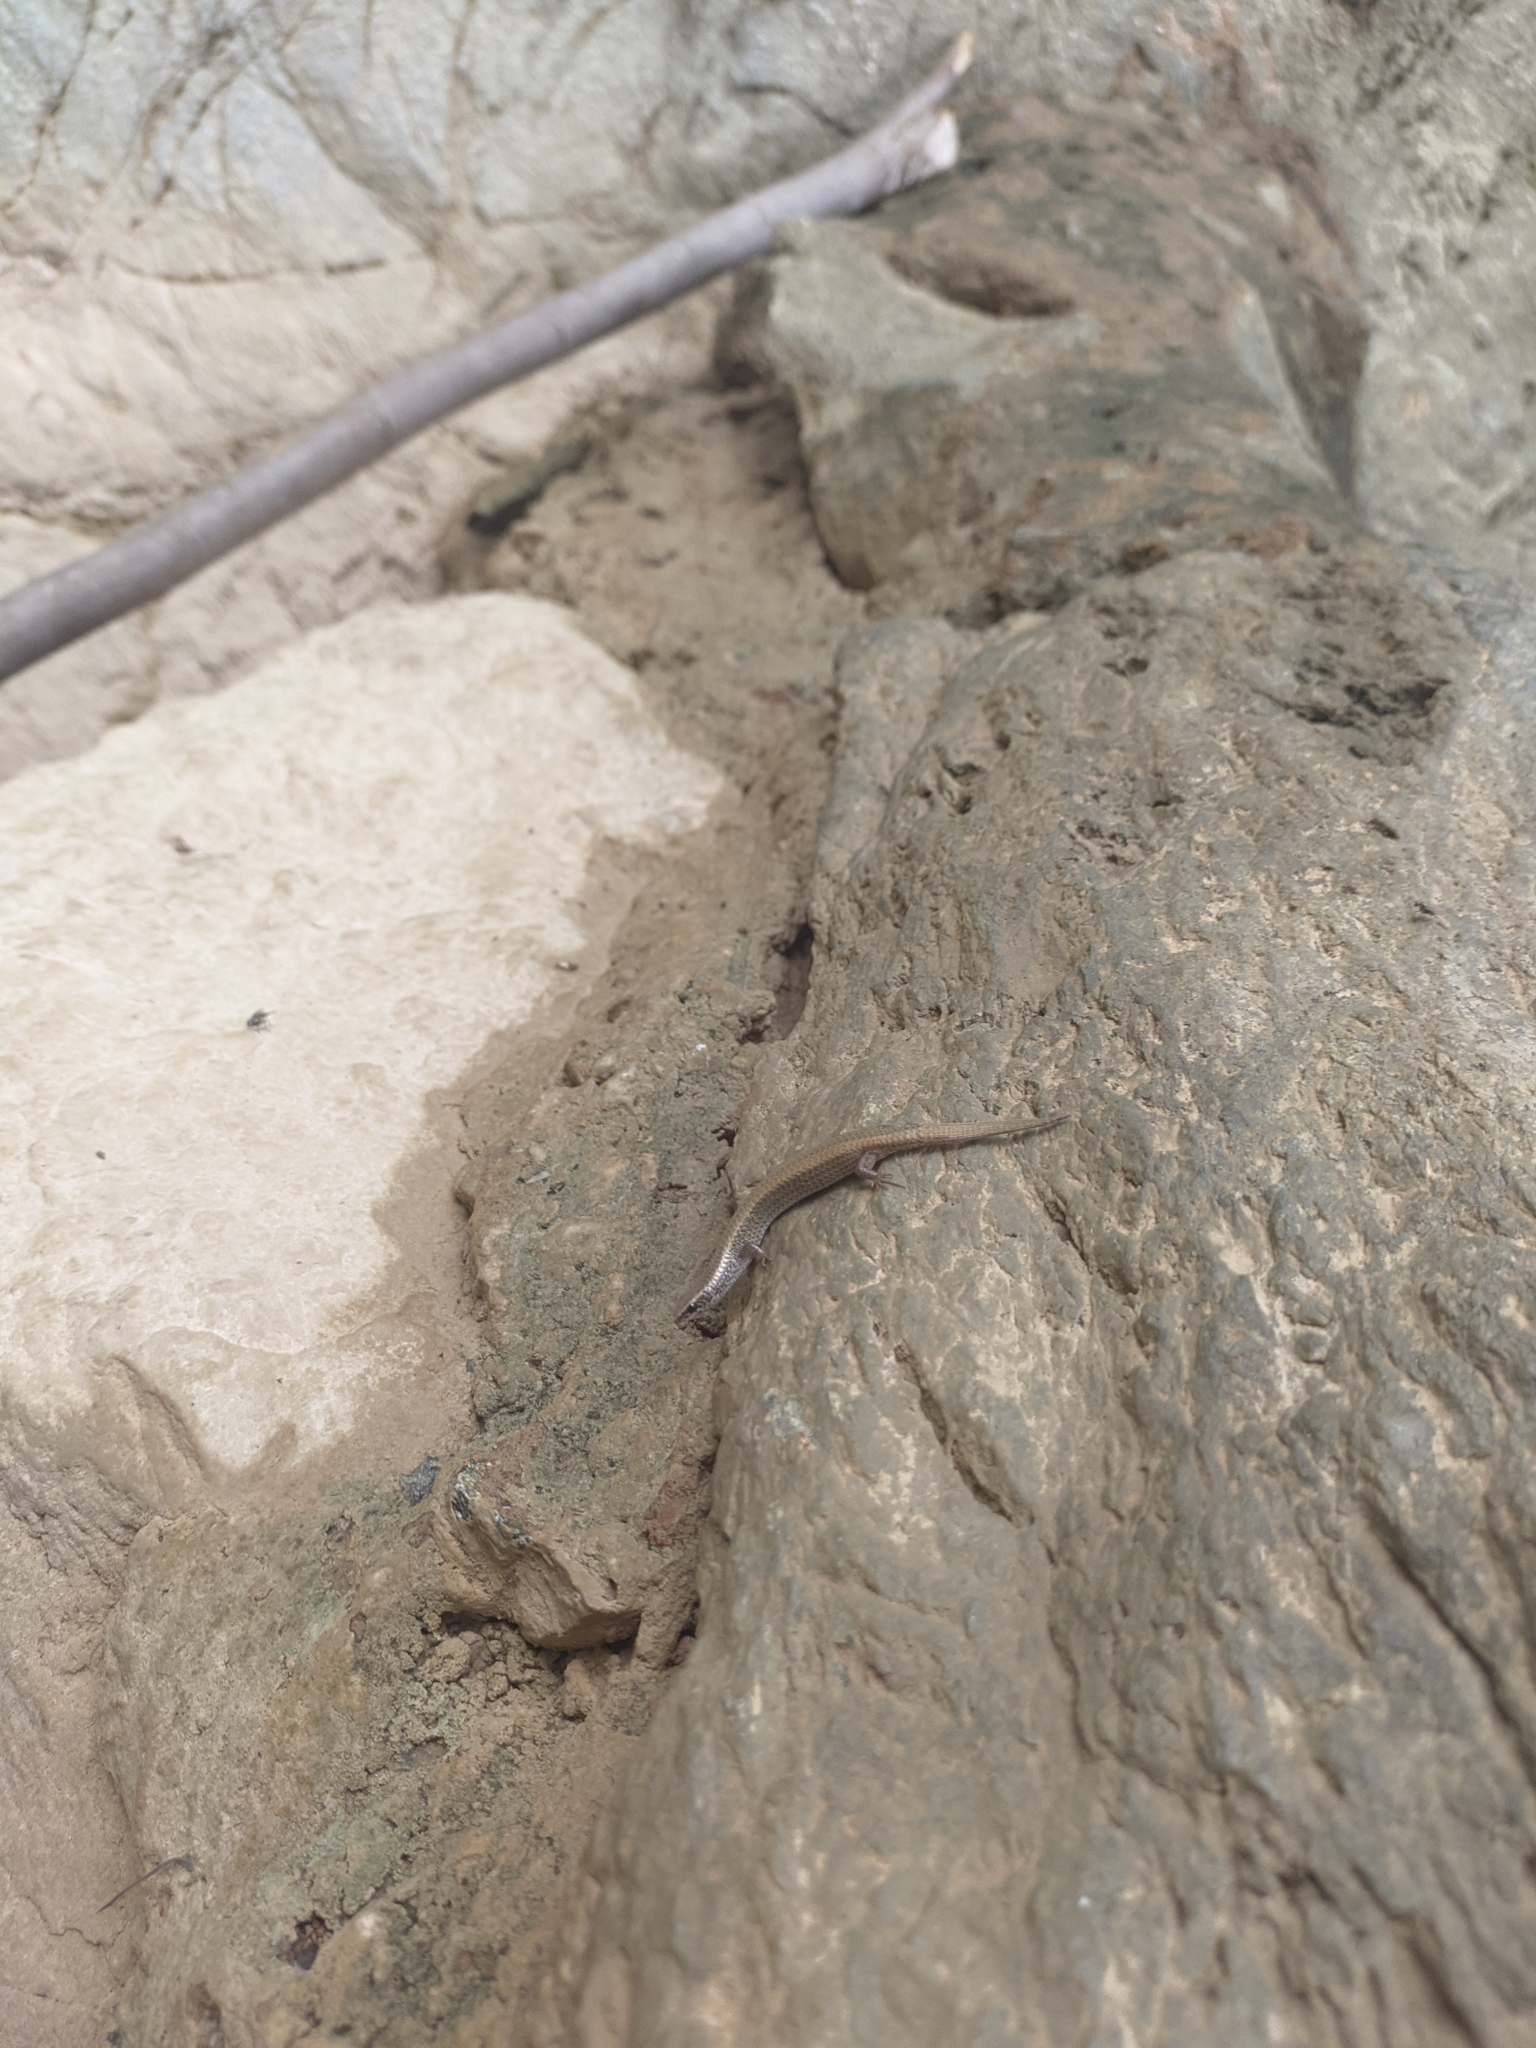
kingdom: Animalia
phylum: Chordata
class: Squamata
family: Gymnophthalmidae
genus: Gymnophthalmus
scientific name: Gymnophthalmus speciosus
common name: Golden spectacled tegu
